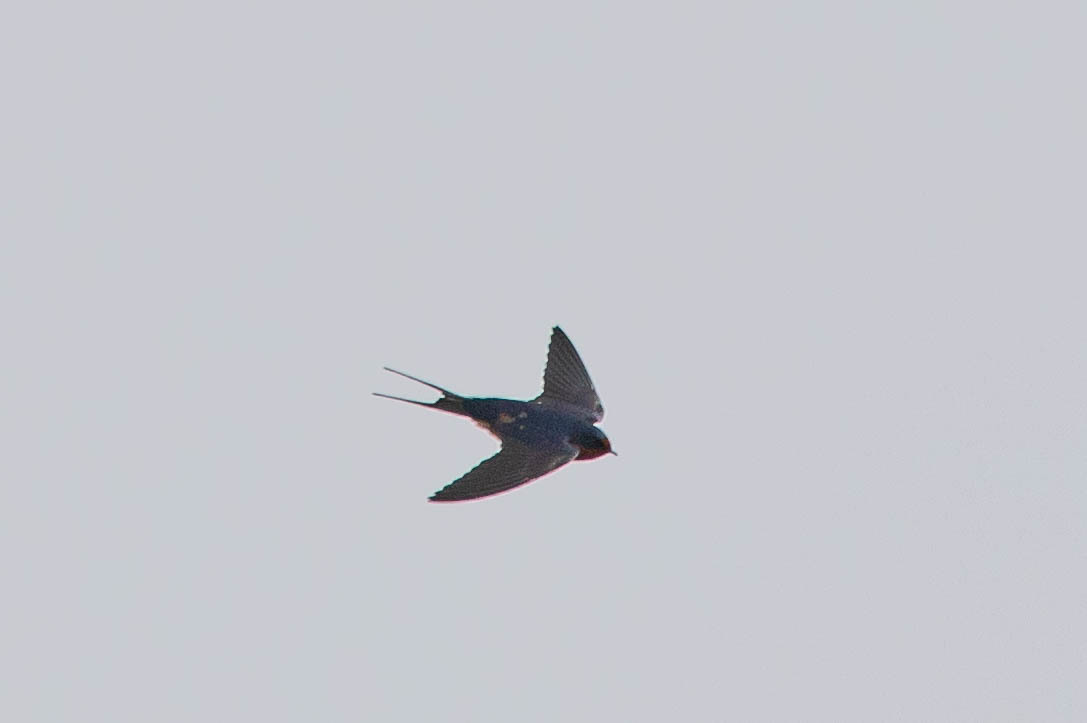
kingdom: Animalia
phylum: Chordata
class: Aves
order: Passeriformes
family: Hirundinidae
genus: Hirundo
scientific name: Hirundo rustica
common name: Barn swallow
